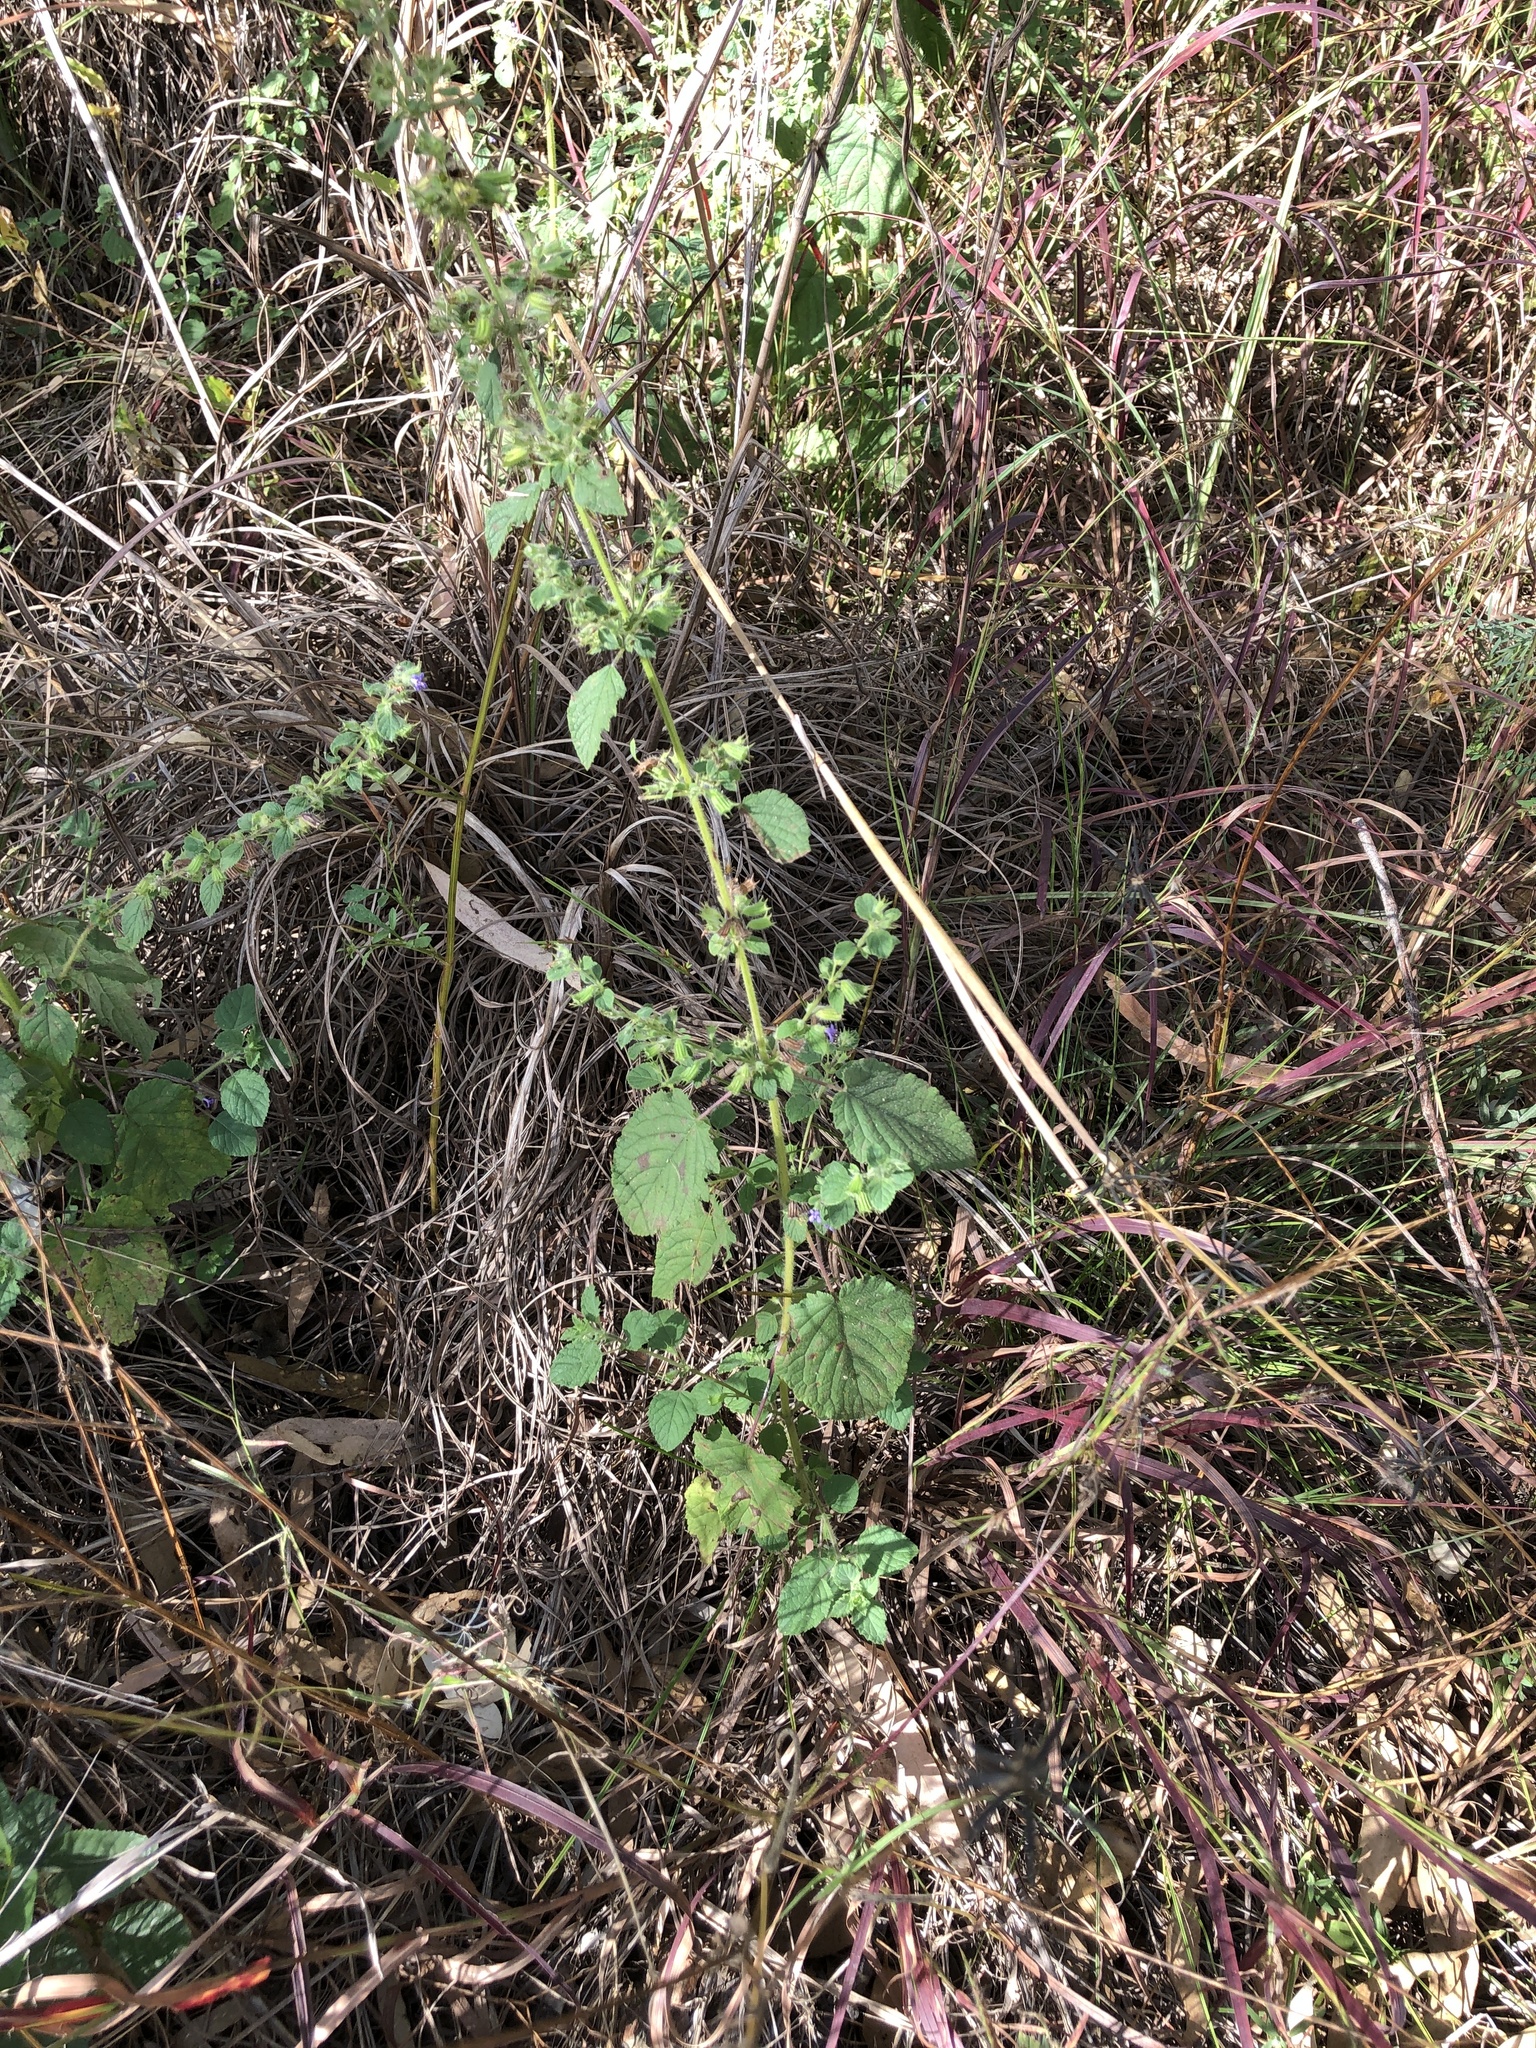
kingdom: Plantae
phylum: Tracheophyta
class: Magnoliopsida
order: Lamiales
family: Lamiaceae
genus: Mesosphaerum
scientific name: Mesosphaerum suaveolens
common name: Pignut
